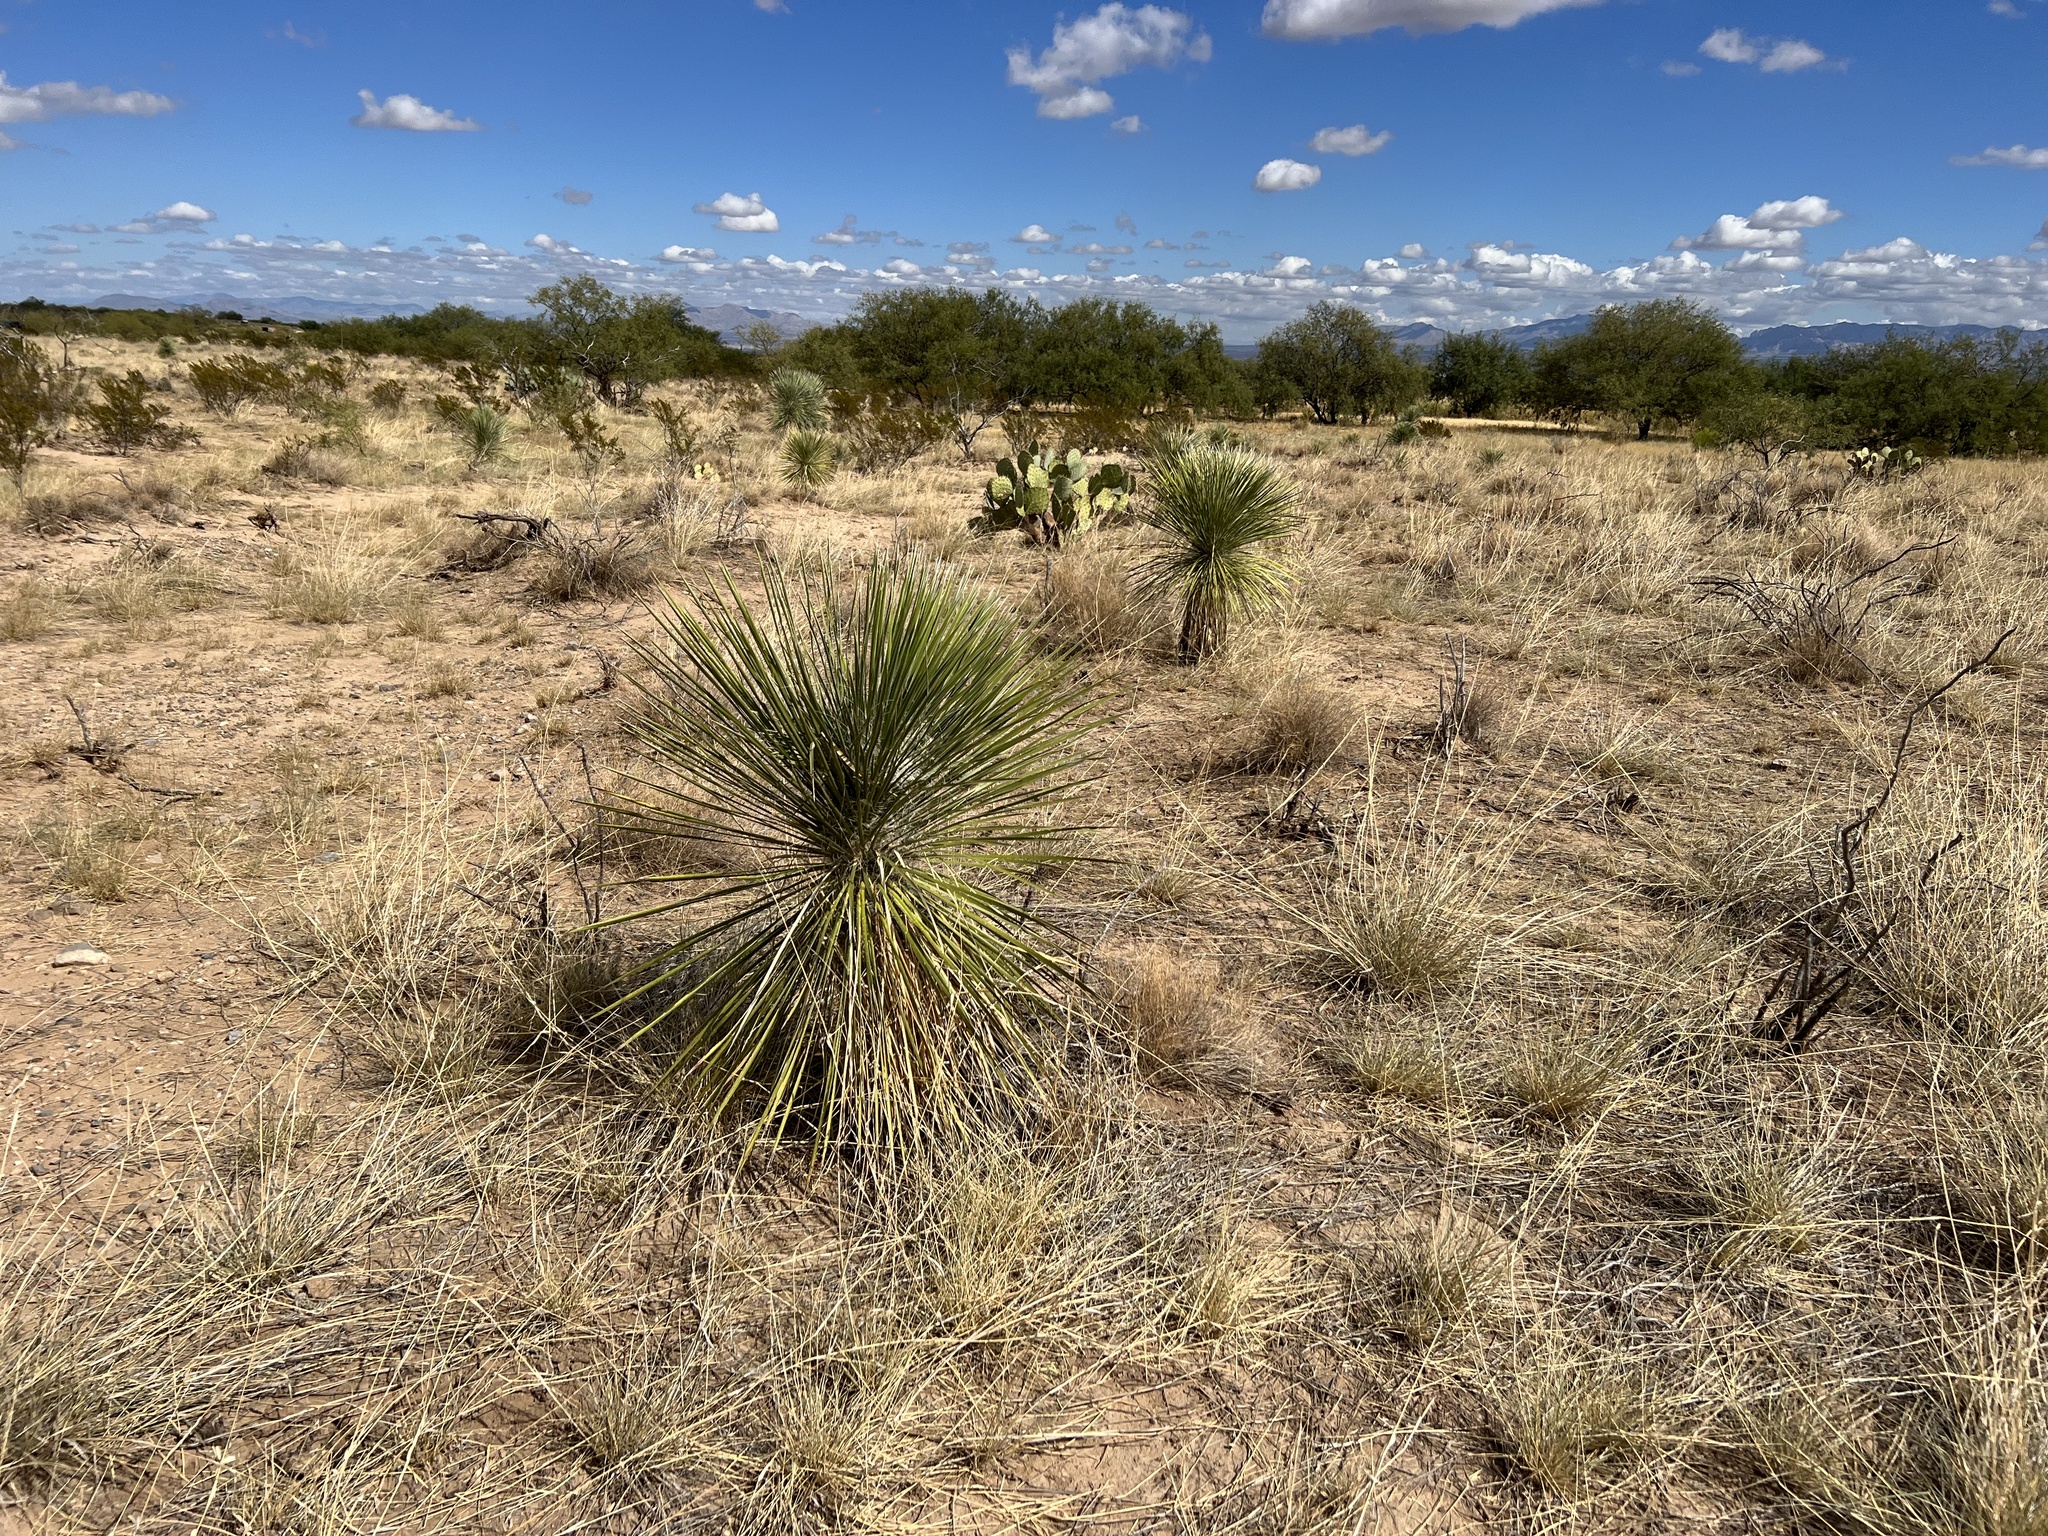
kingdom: Plantae
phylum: Tracheophyta
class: Liliopsida
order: Asparagales
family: Asparagaceae
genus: Yucca
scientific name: Yucca elata
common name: Palmella
